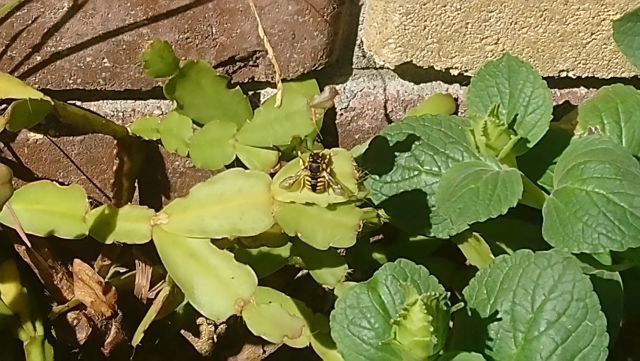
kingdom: Animalia
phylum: Arthropoda
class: Insecta
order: Hymenoptera
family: Megachilidae
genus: Anthidium
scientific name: Anthidium manicatum
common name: Wool carder bee
